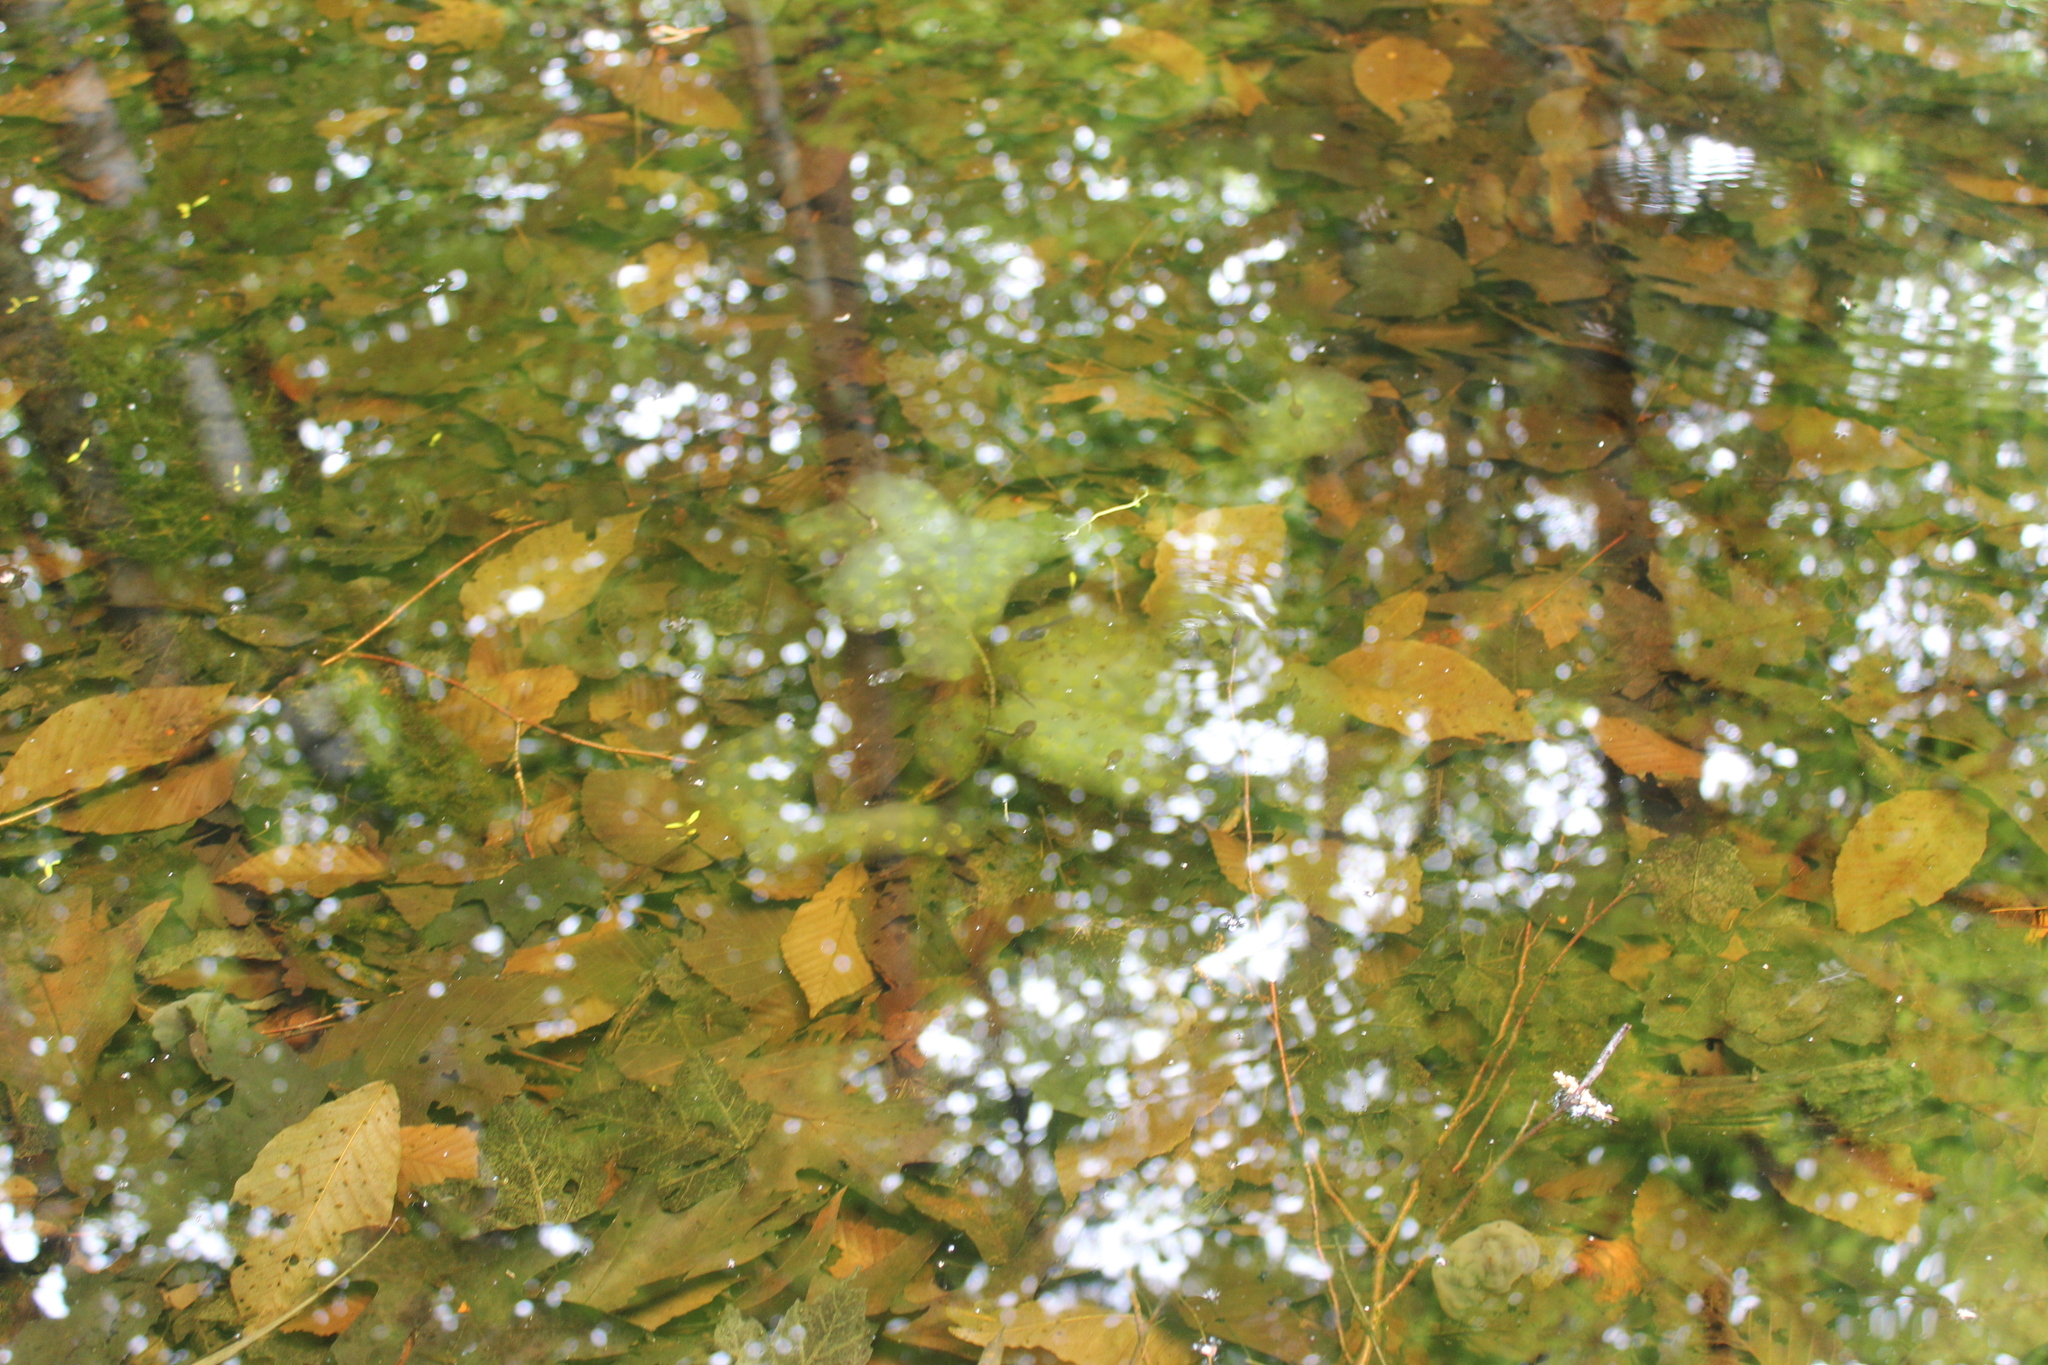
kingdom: Animalia
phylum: Chordata
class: Amphibia
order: Caudata
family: Ambystomatidae
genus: Ambystoma
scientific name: Ambystoma maculatum
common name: Spotted salamander
